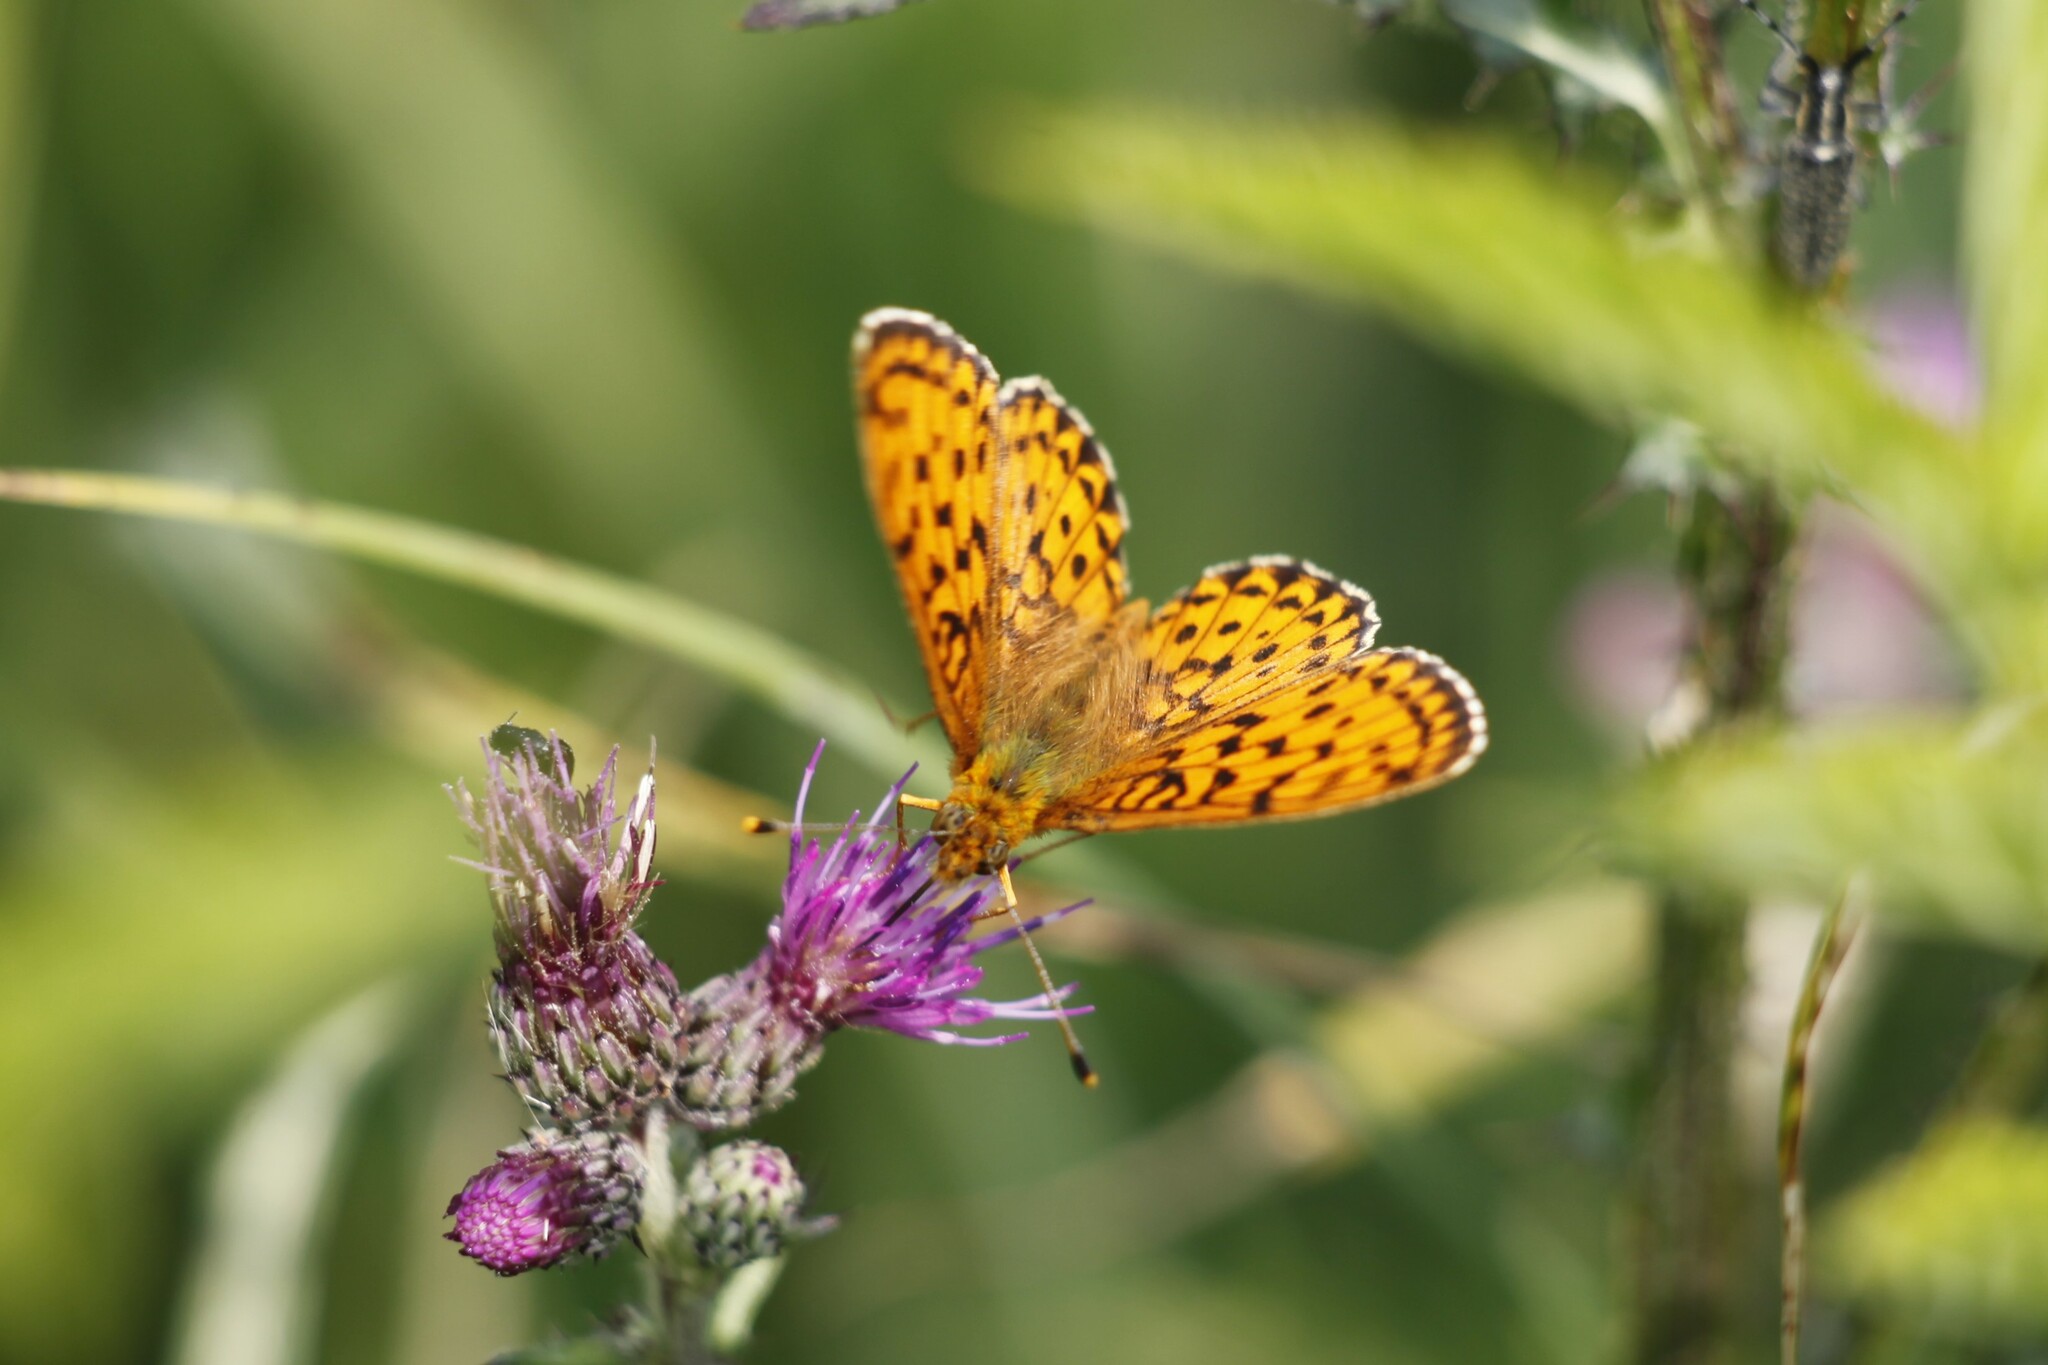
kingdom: Animalia
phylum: Arthropoda
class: Insecta
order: Lepidoptera
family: Nymphalidae
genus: Brenthis
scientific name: Brenthis ino
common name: Lesser marbled fritillary
